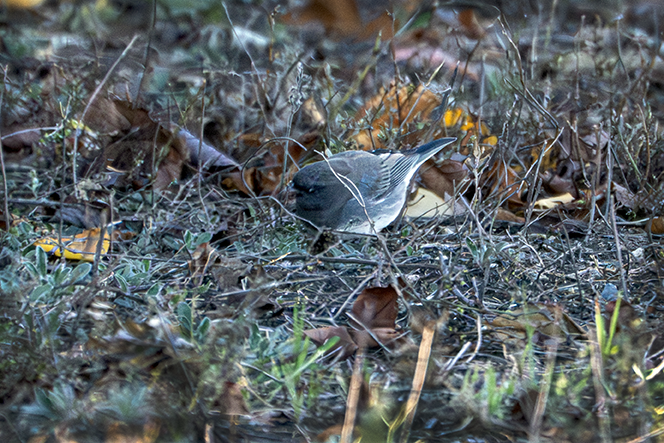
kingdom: Animalia
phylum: Chordata
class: Aves
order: Passeriformes
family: Passerellidae
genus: Junco
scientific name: Junco hyemalis
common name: Dark-eyed junco
